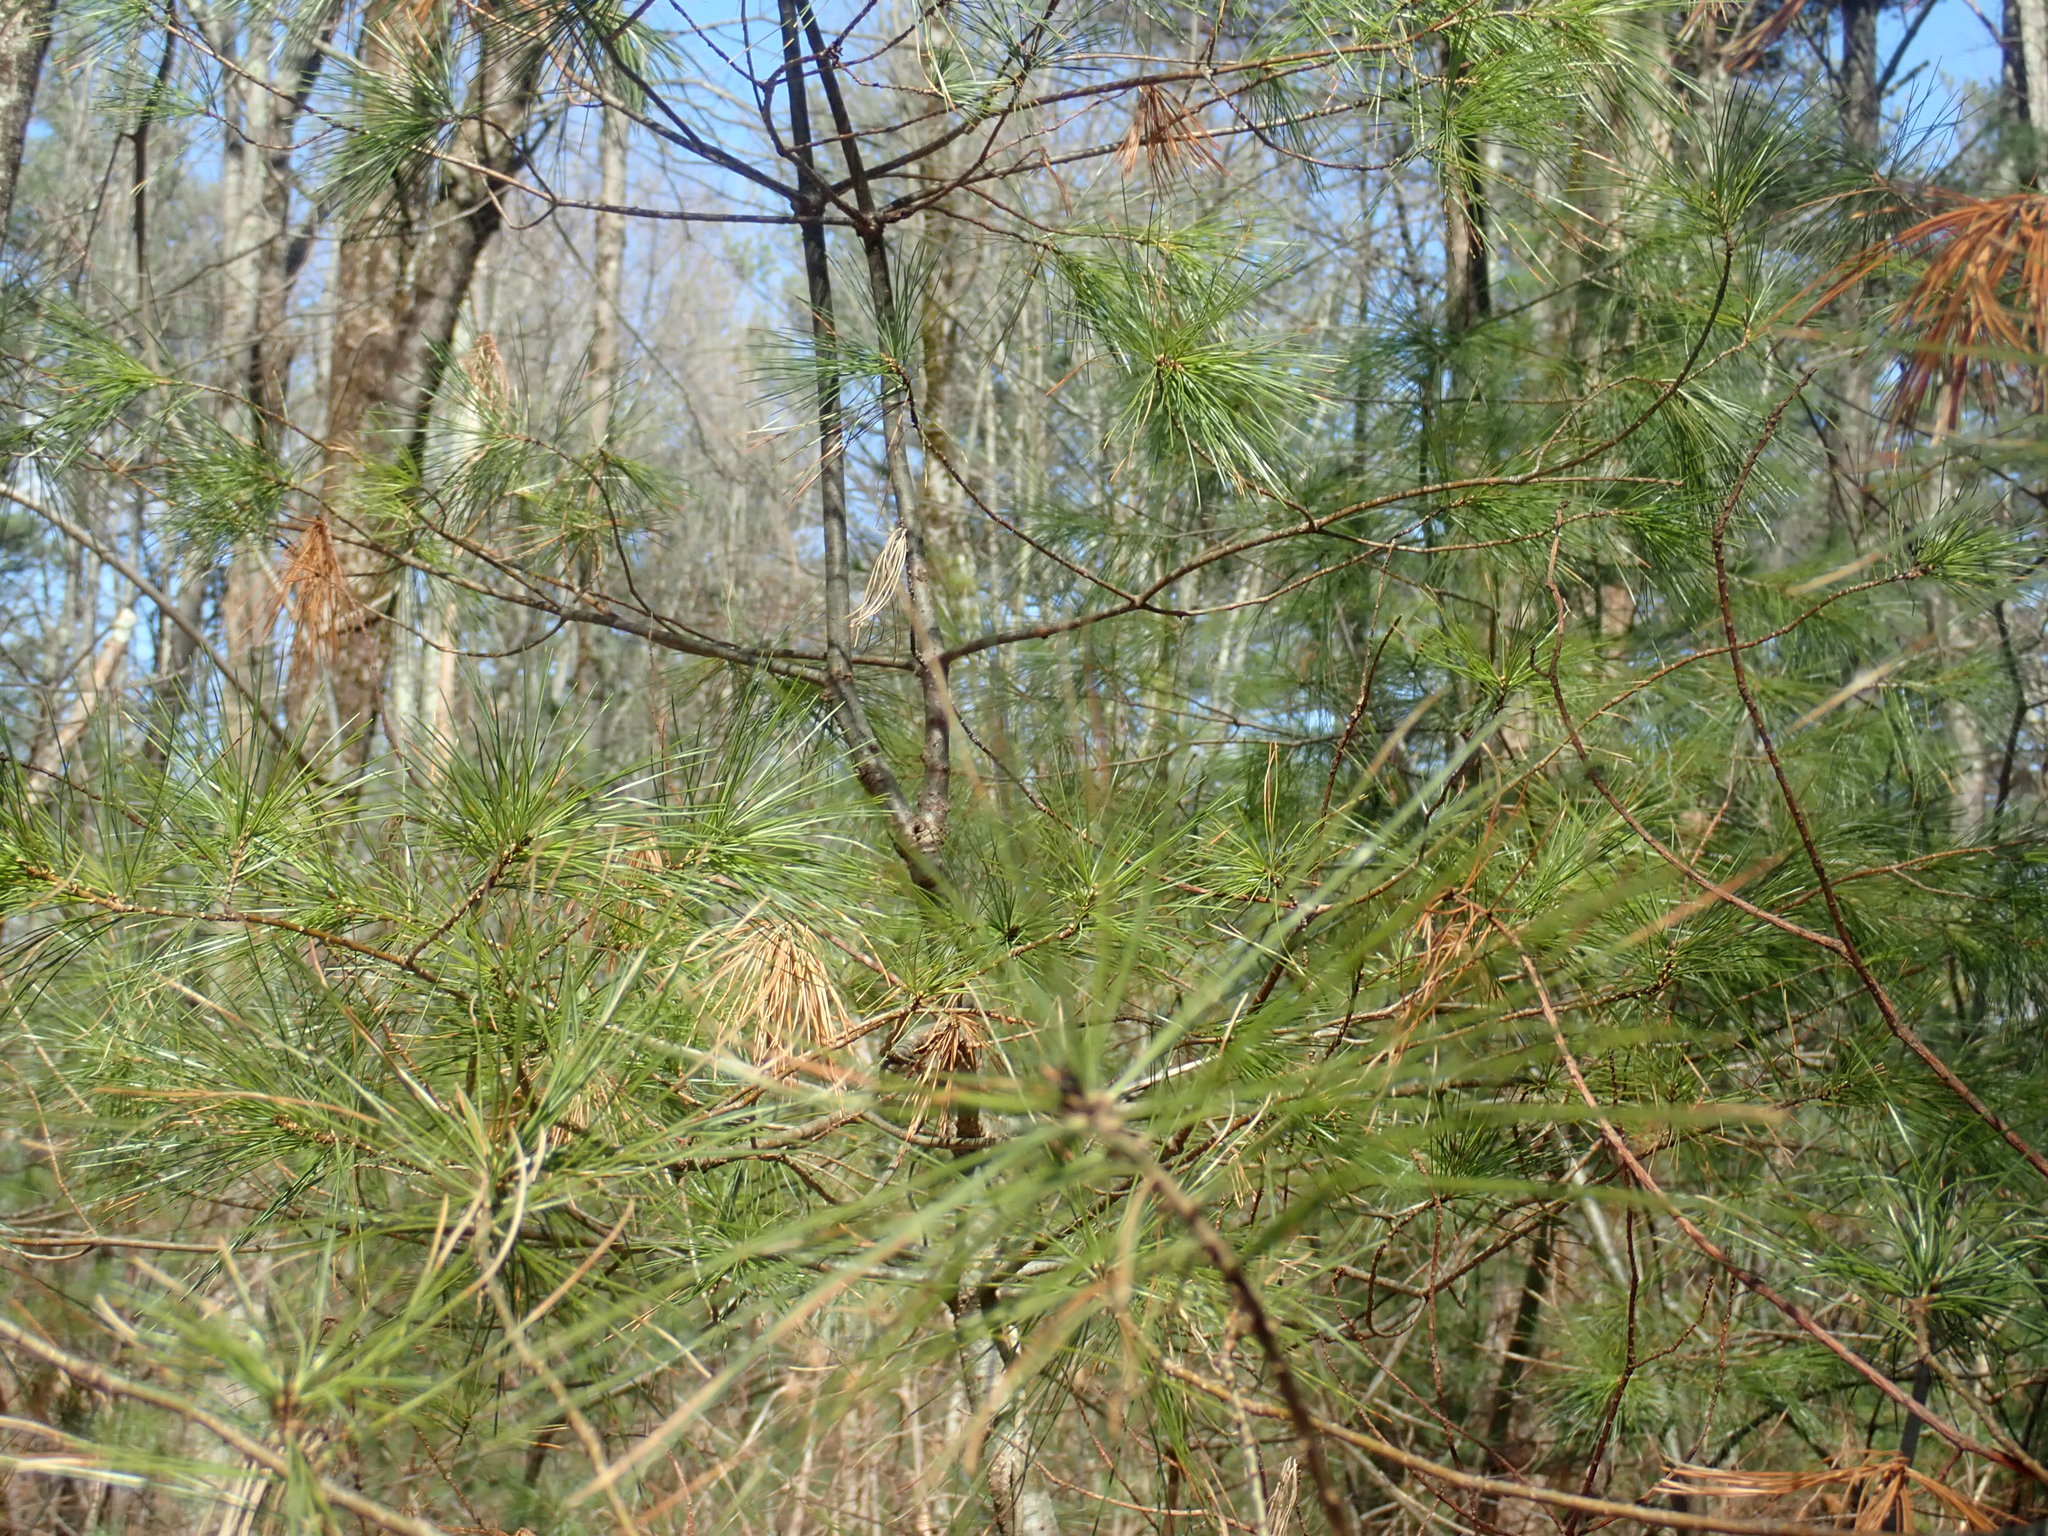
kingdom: Plantae
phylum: Tracheophyta
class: Pinopsida
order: Pinales
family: Pinaceae
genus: Pinus
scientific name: Pinus strobus
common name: Weymouth pine
